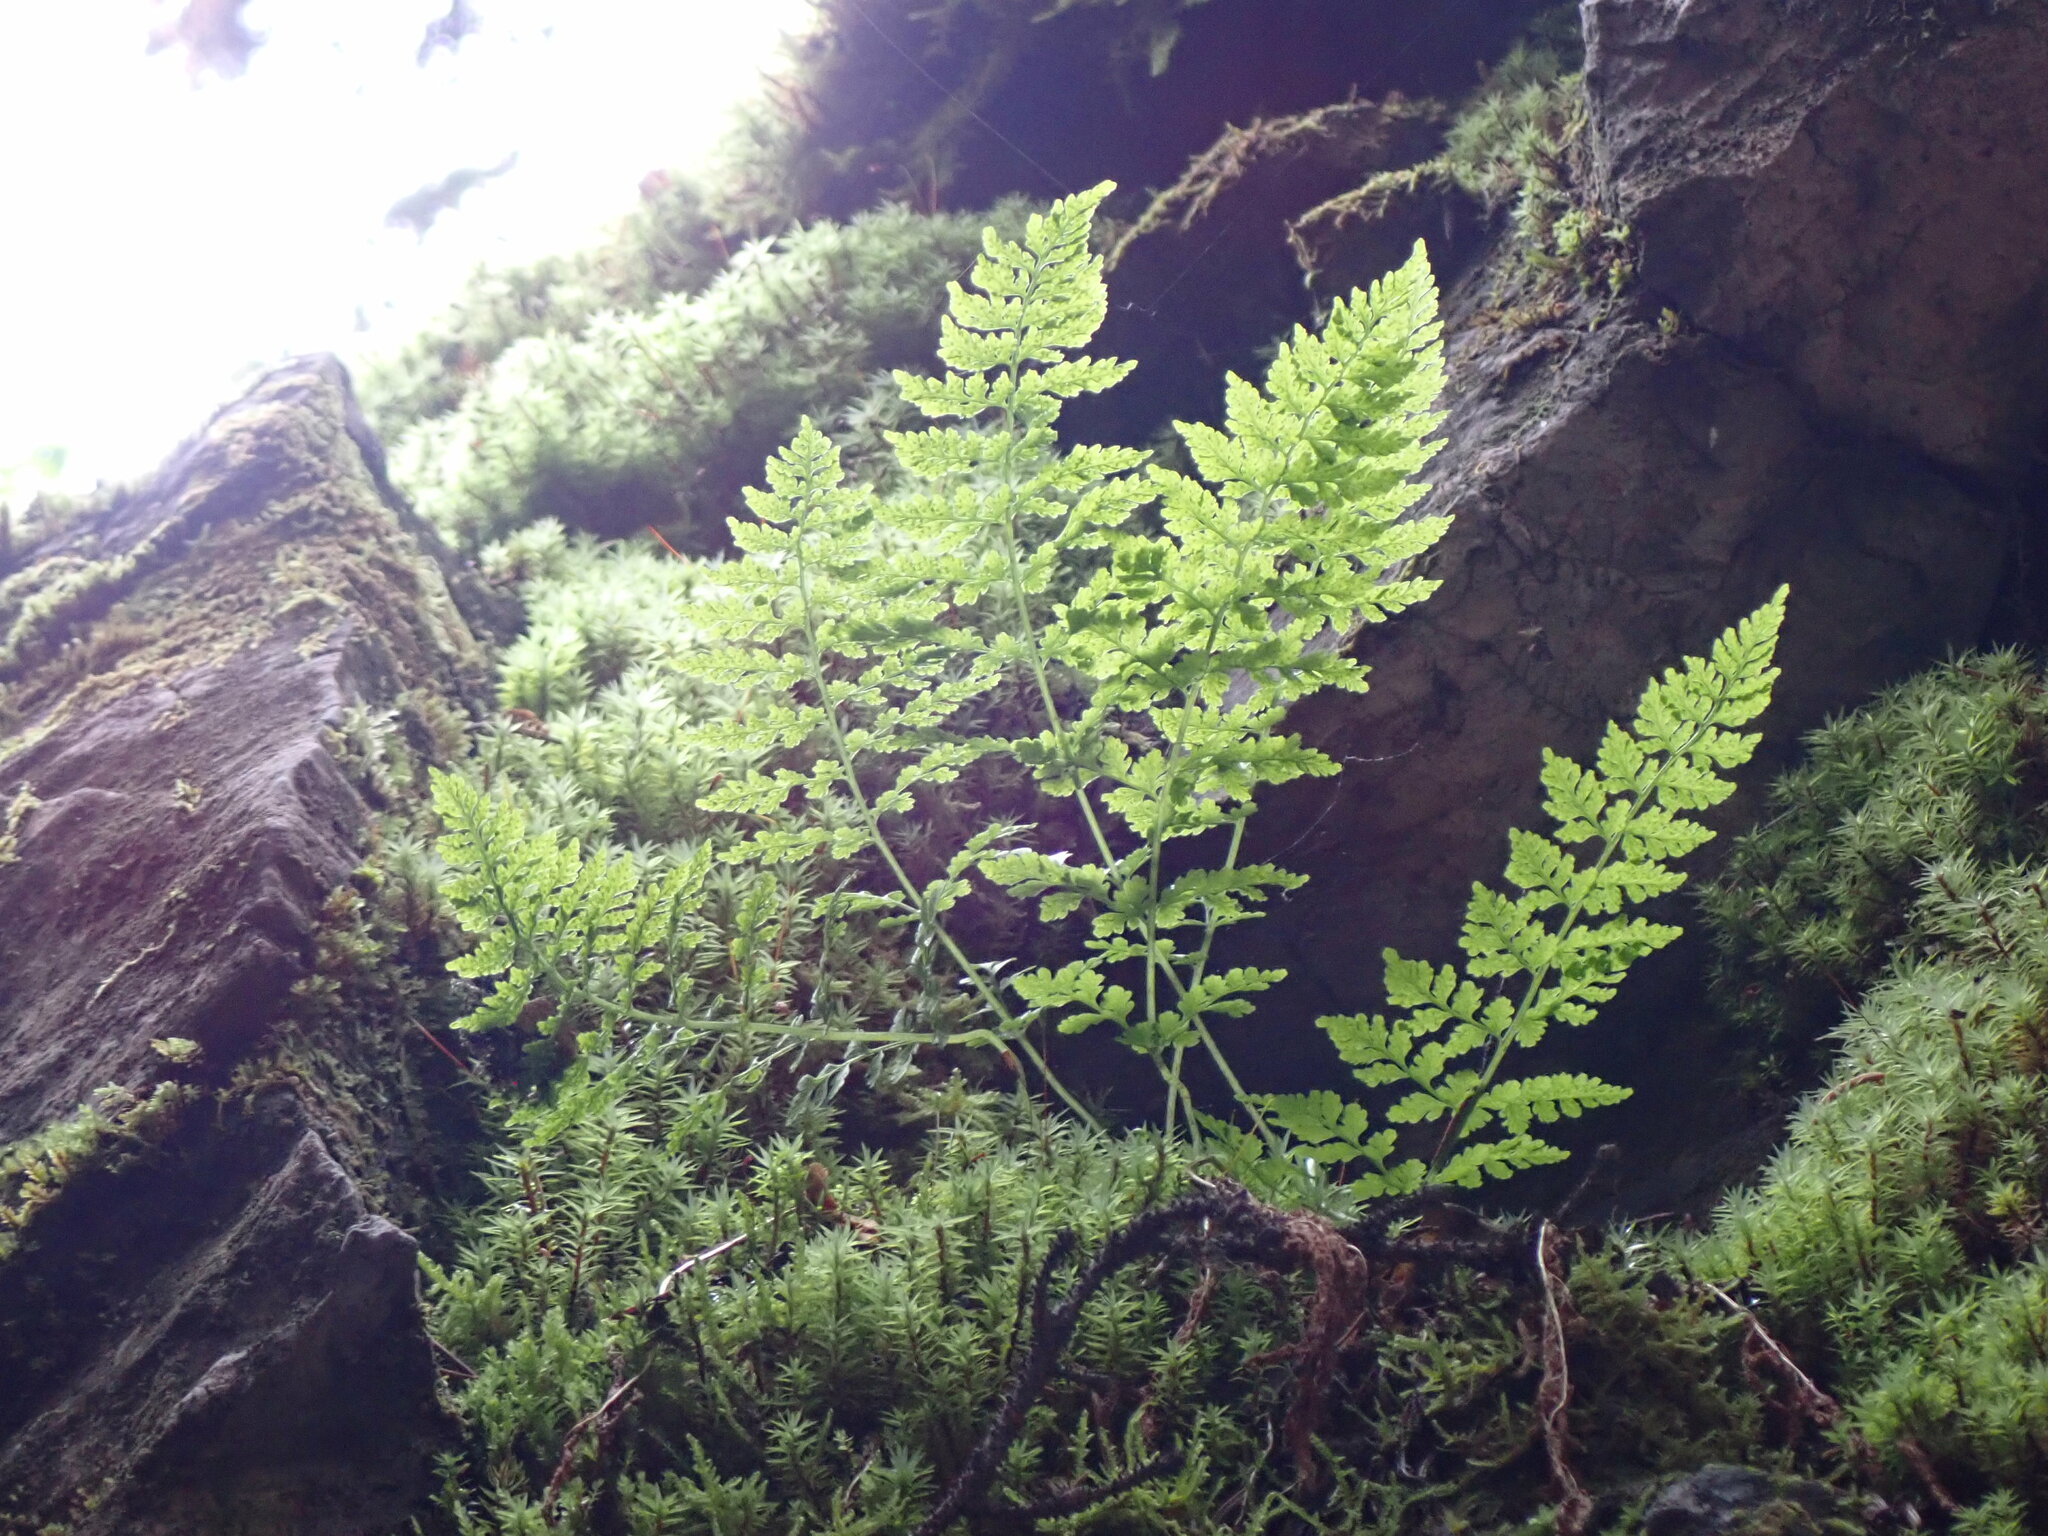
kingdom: Plantae
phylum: Tracheophyta
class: Polypodiopsida
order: Polypodiales
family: Cystopteridaceae
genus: Cystopteris
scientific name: Cystopteris fragilis
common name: Brittle bladder fern
